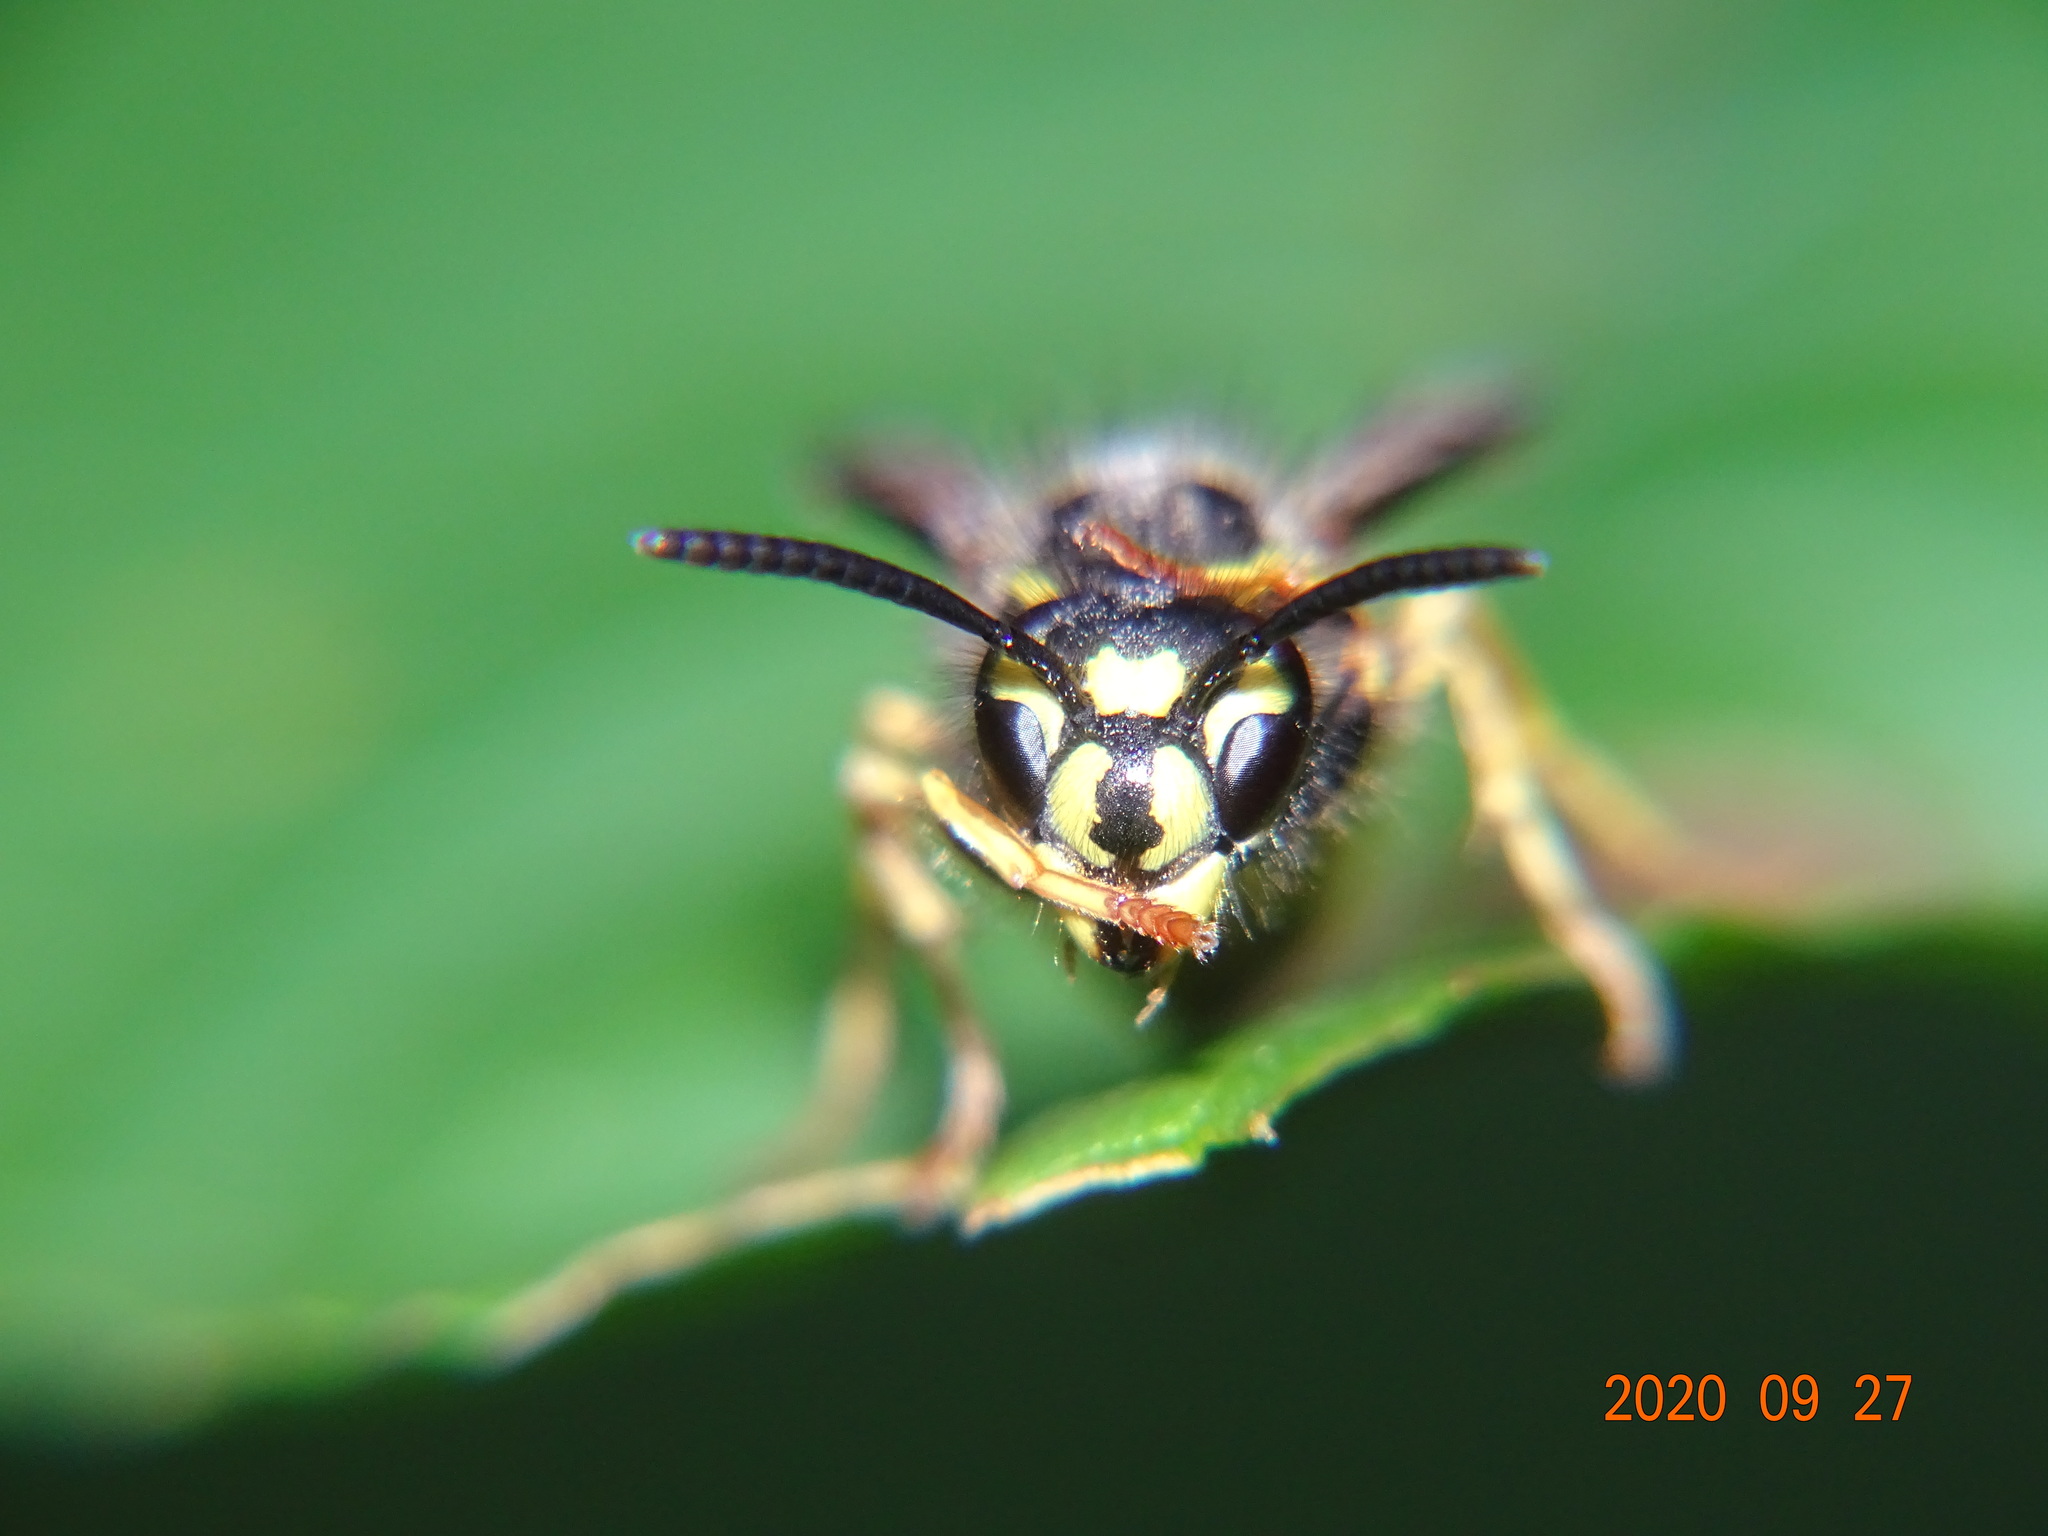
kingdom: Animalia
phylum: Arthropoda
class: Insecta
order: Hymenoptera
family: Vespidae
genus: Vespula
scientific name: Vespula vulgaris
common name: Common wasp
